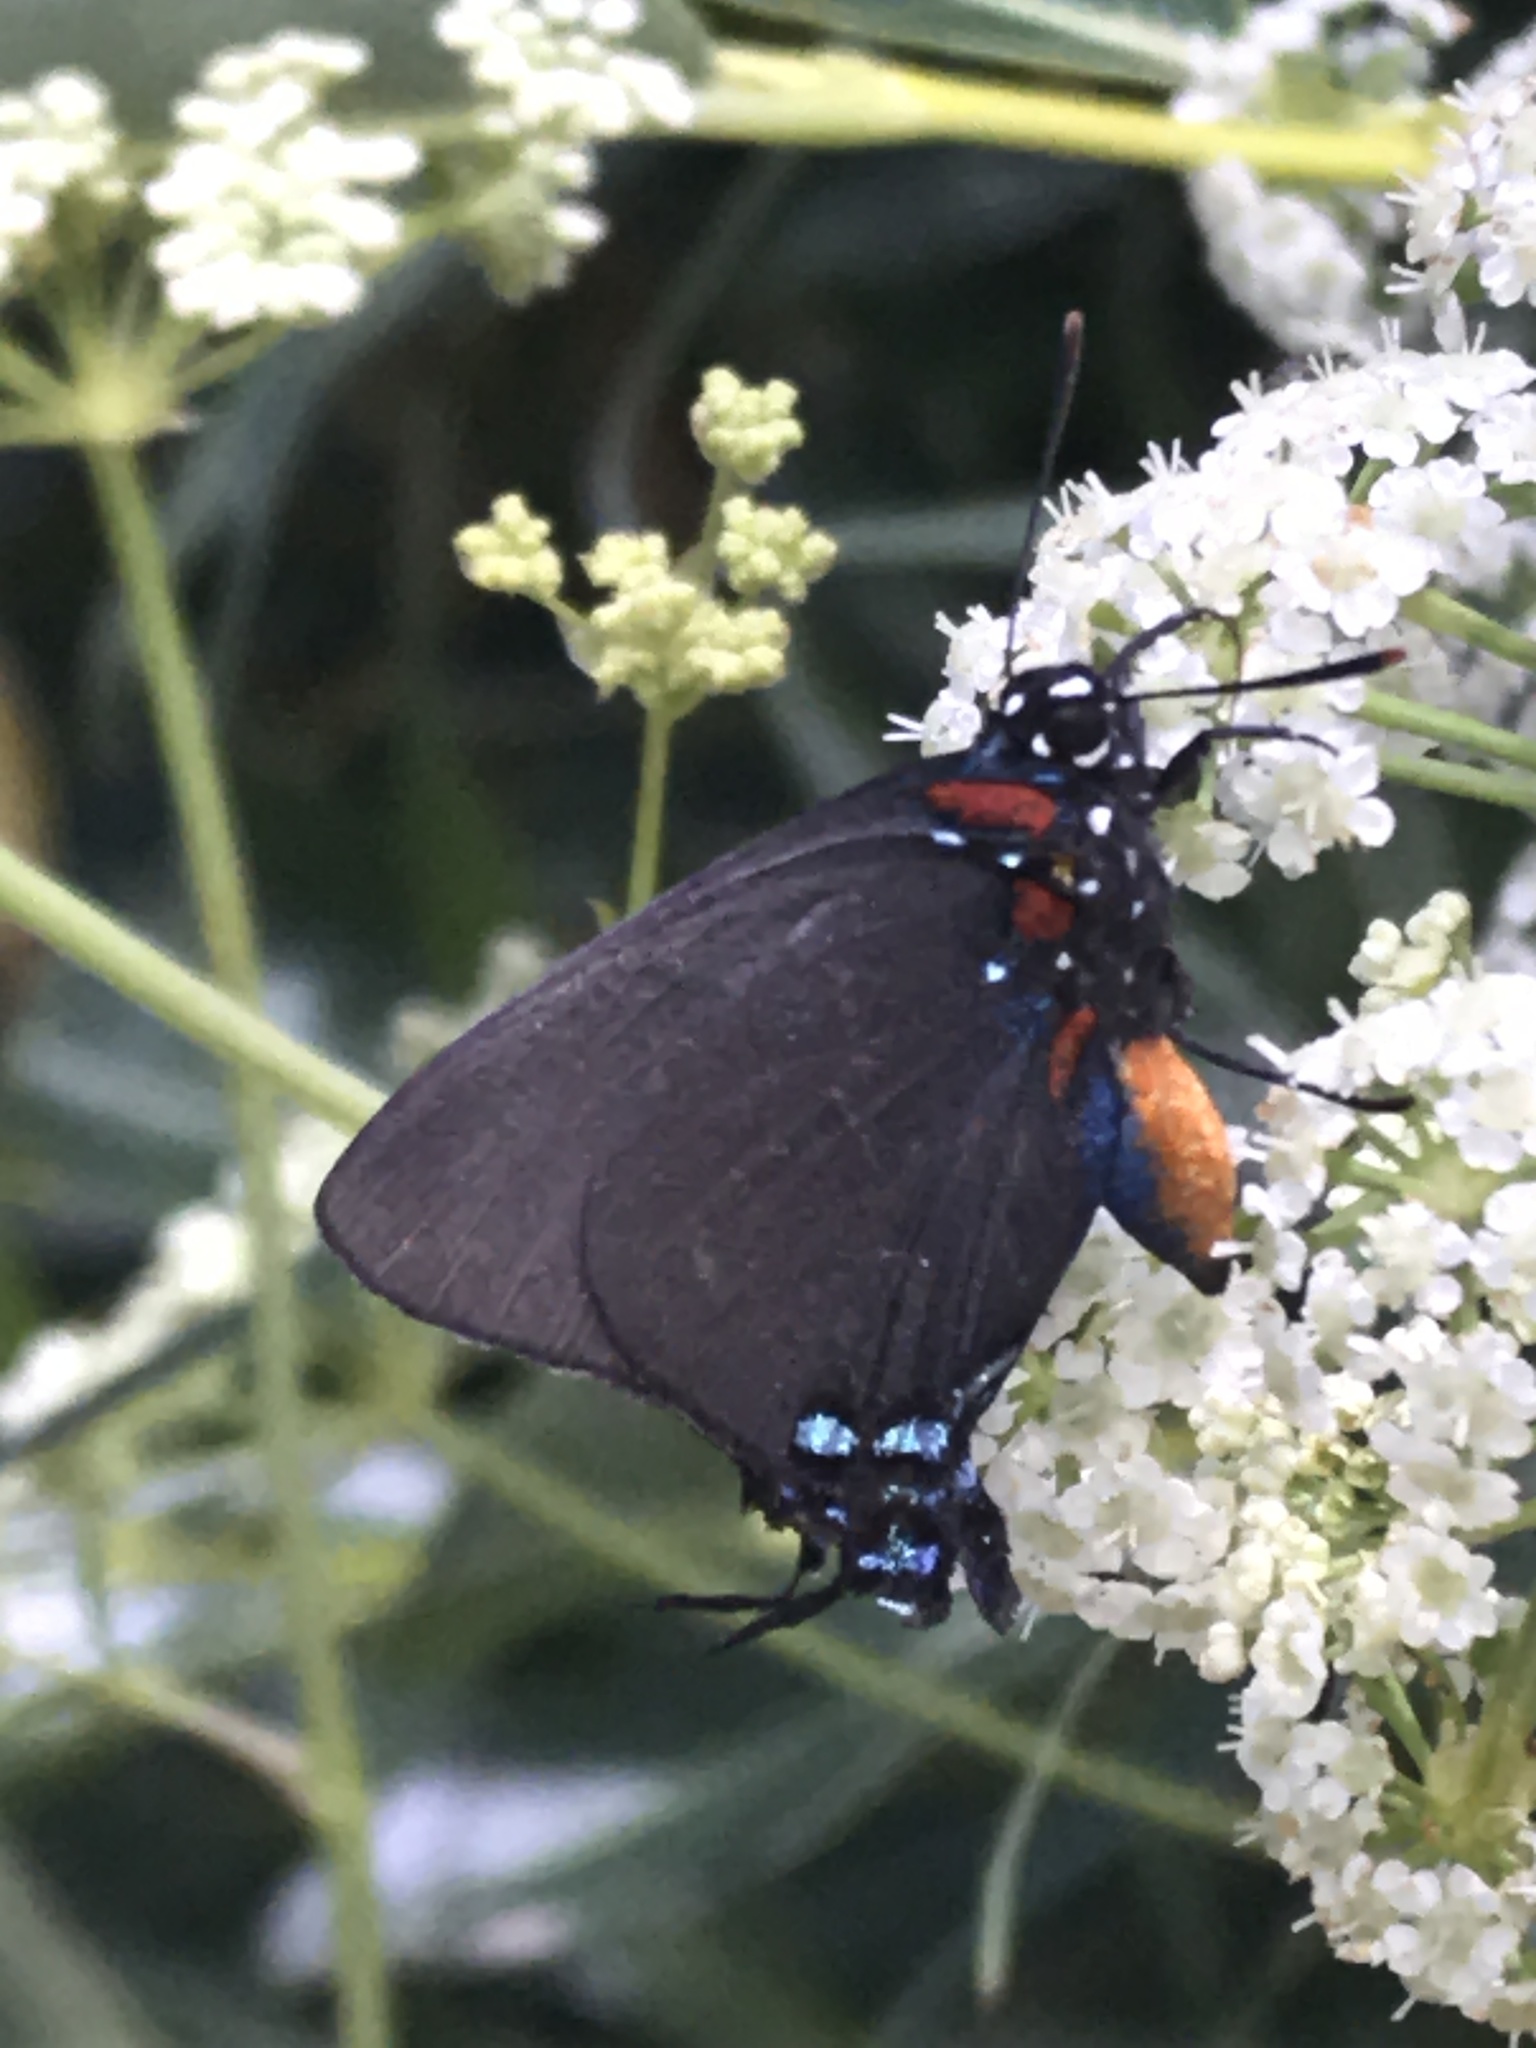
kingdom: Animalia
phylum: Arthropoda
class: Insecta
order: Lepidoptera
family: Lycaenidae
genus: Atlides
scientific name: Atlides halesus
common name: Great purple hairstreak
